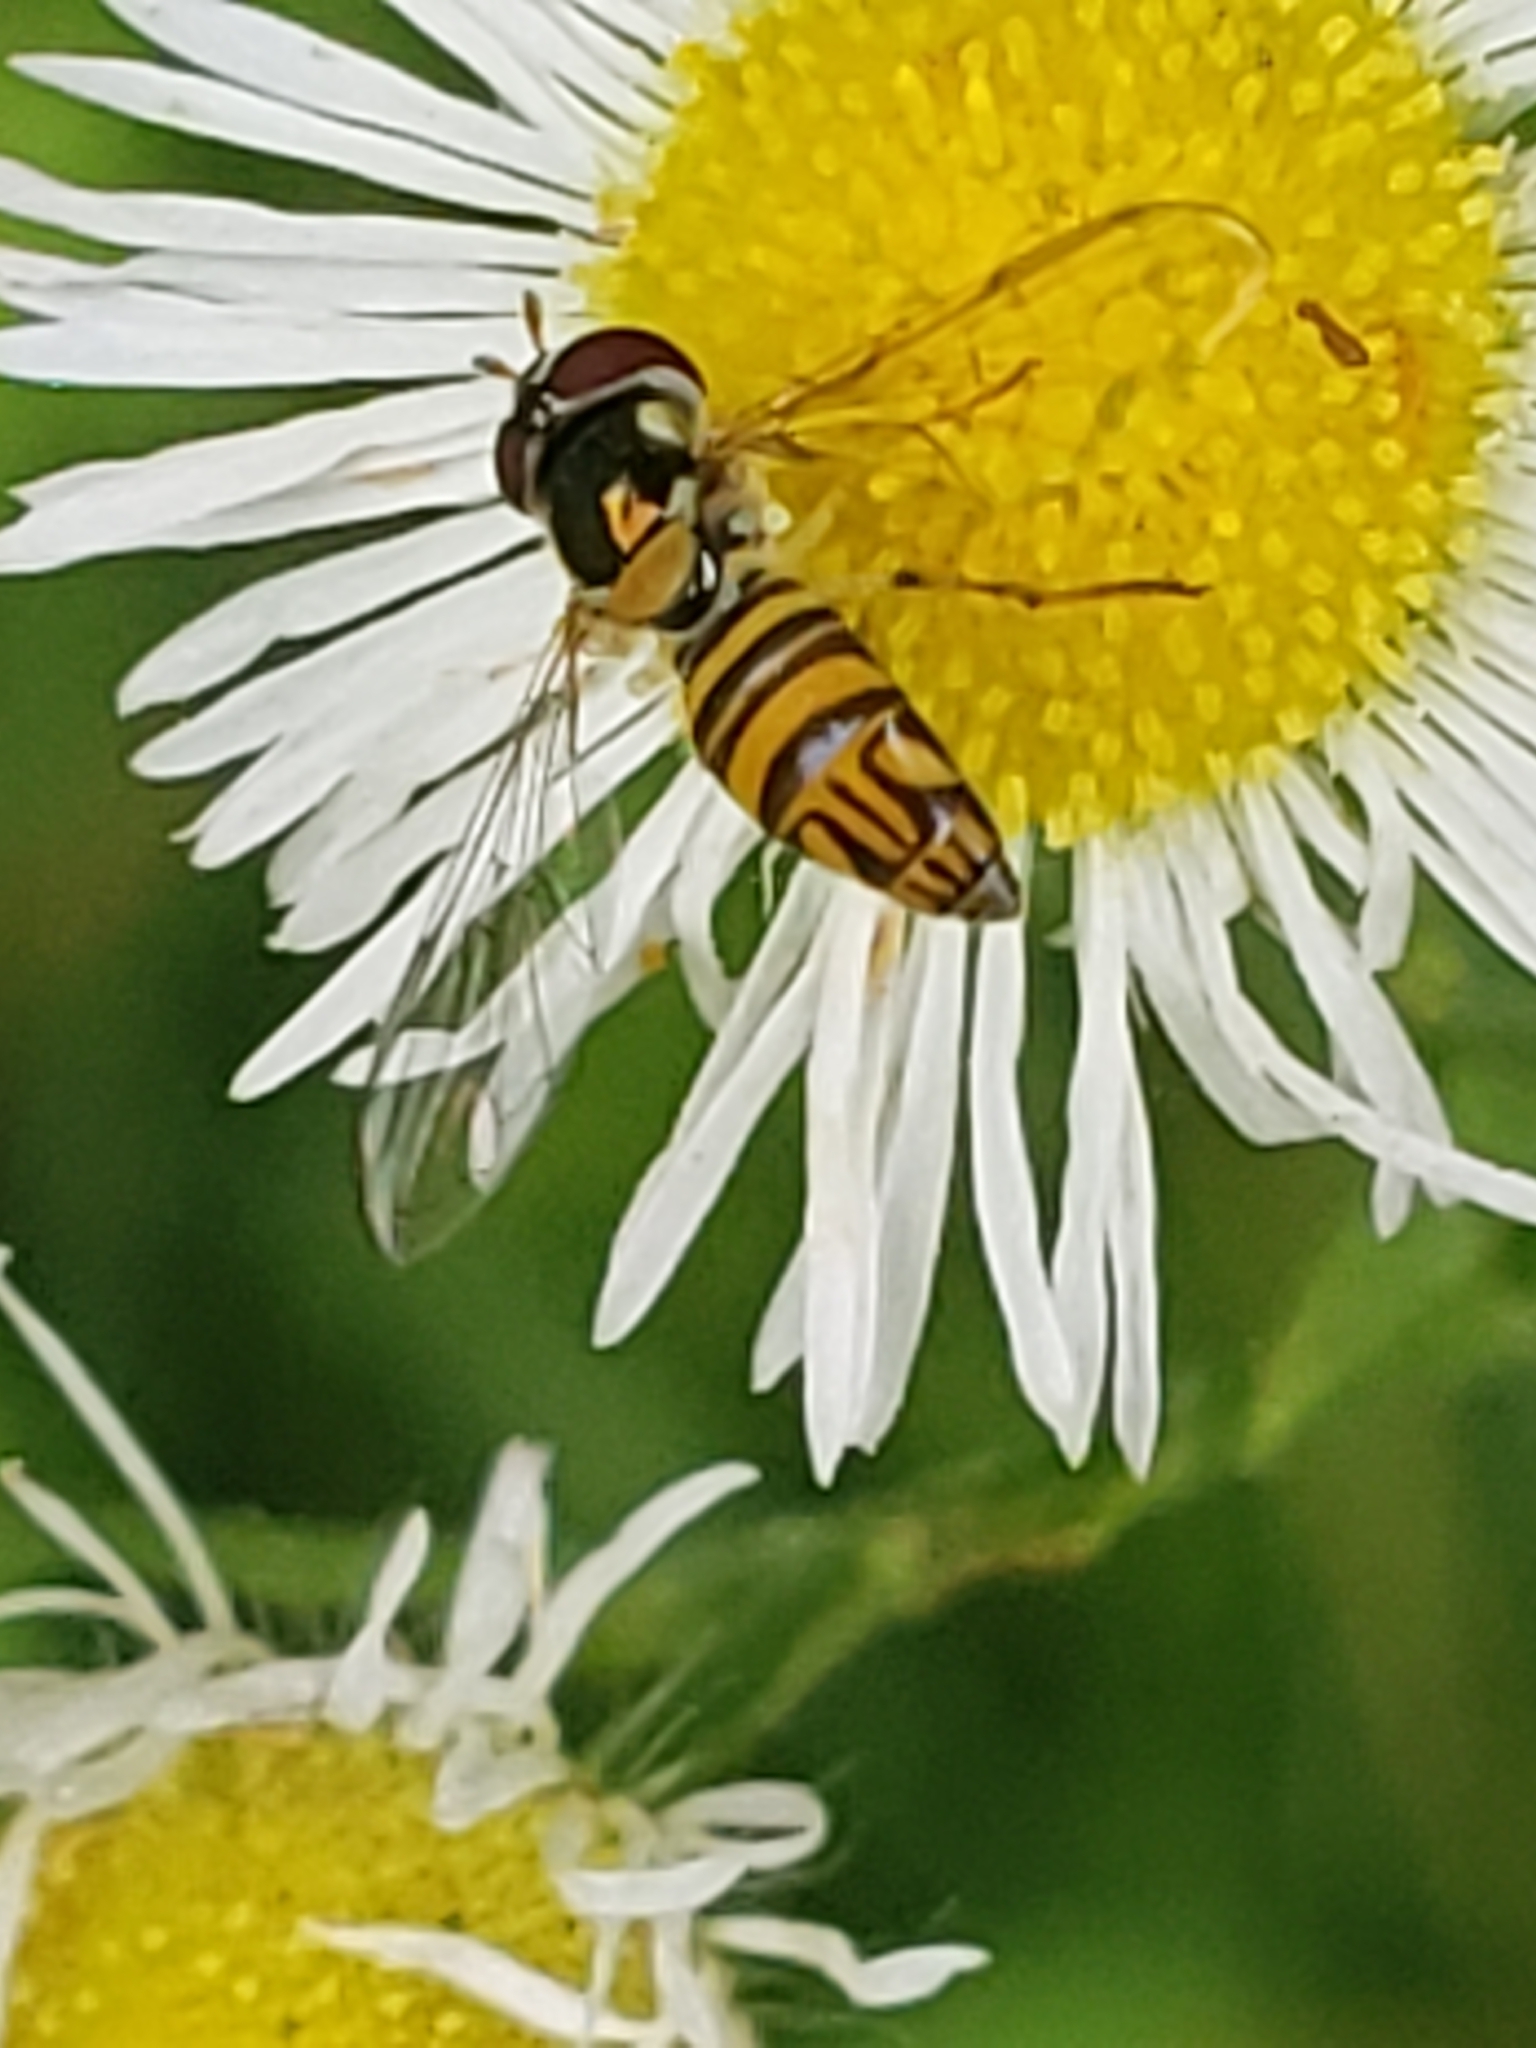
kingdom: Animalia
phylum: Arthropoda
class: Insecta
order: Diptera
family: Syrphidae
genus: Allograpta
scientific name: Allograpta obliqua
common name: Common oblique syrphid
